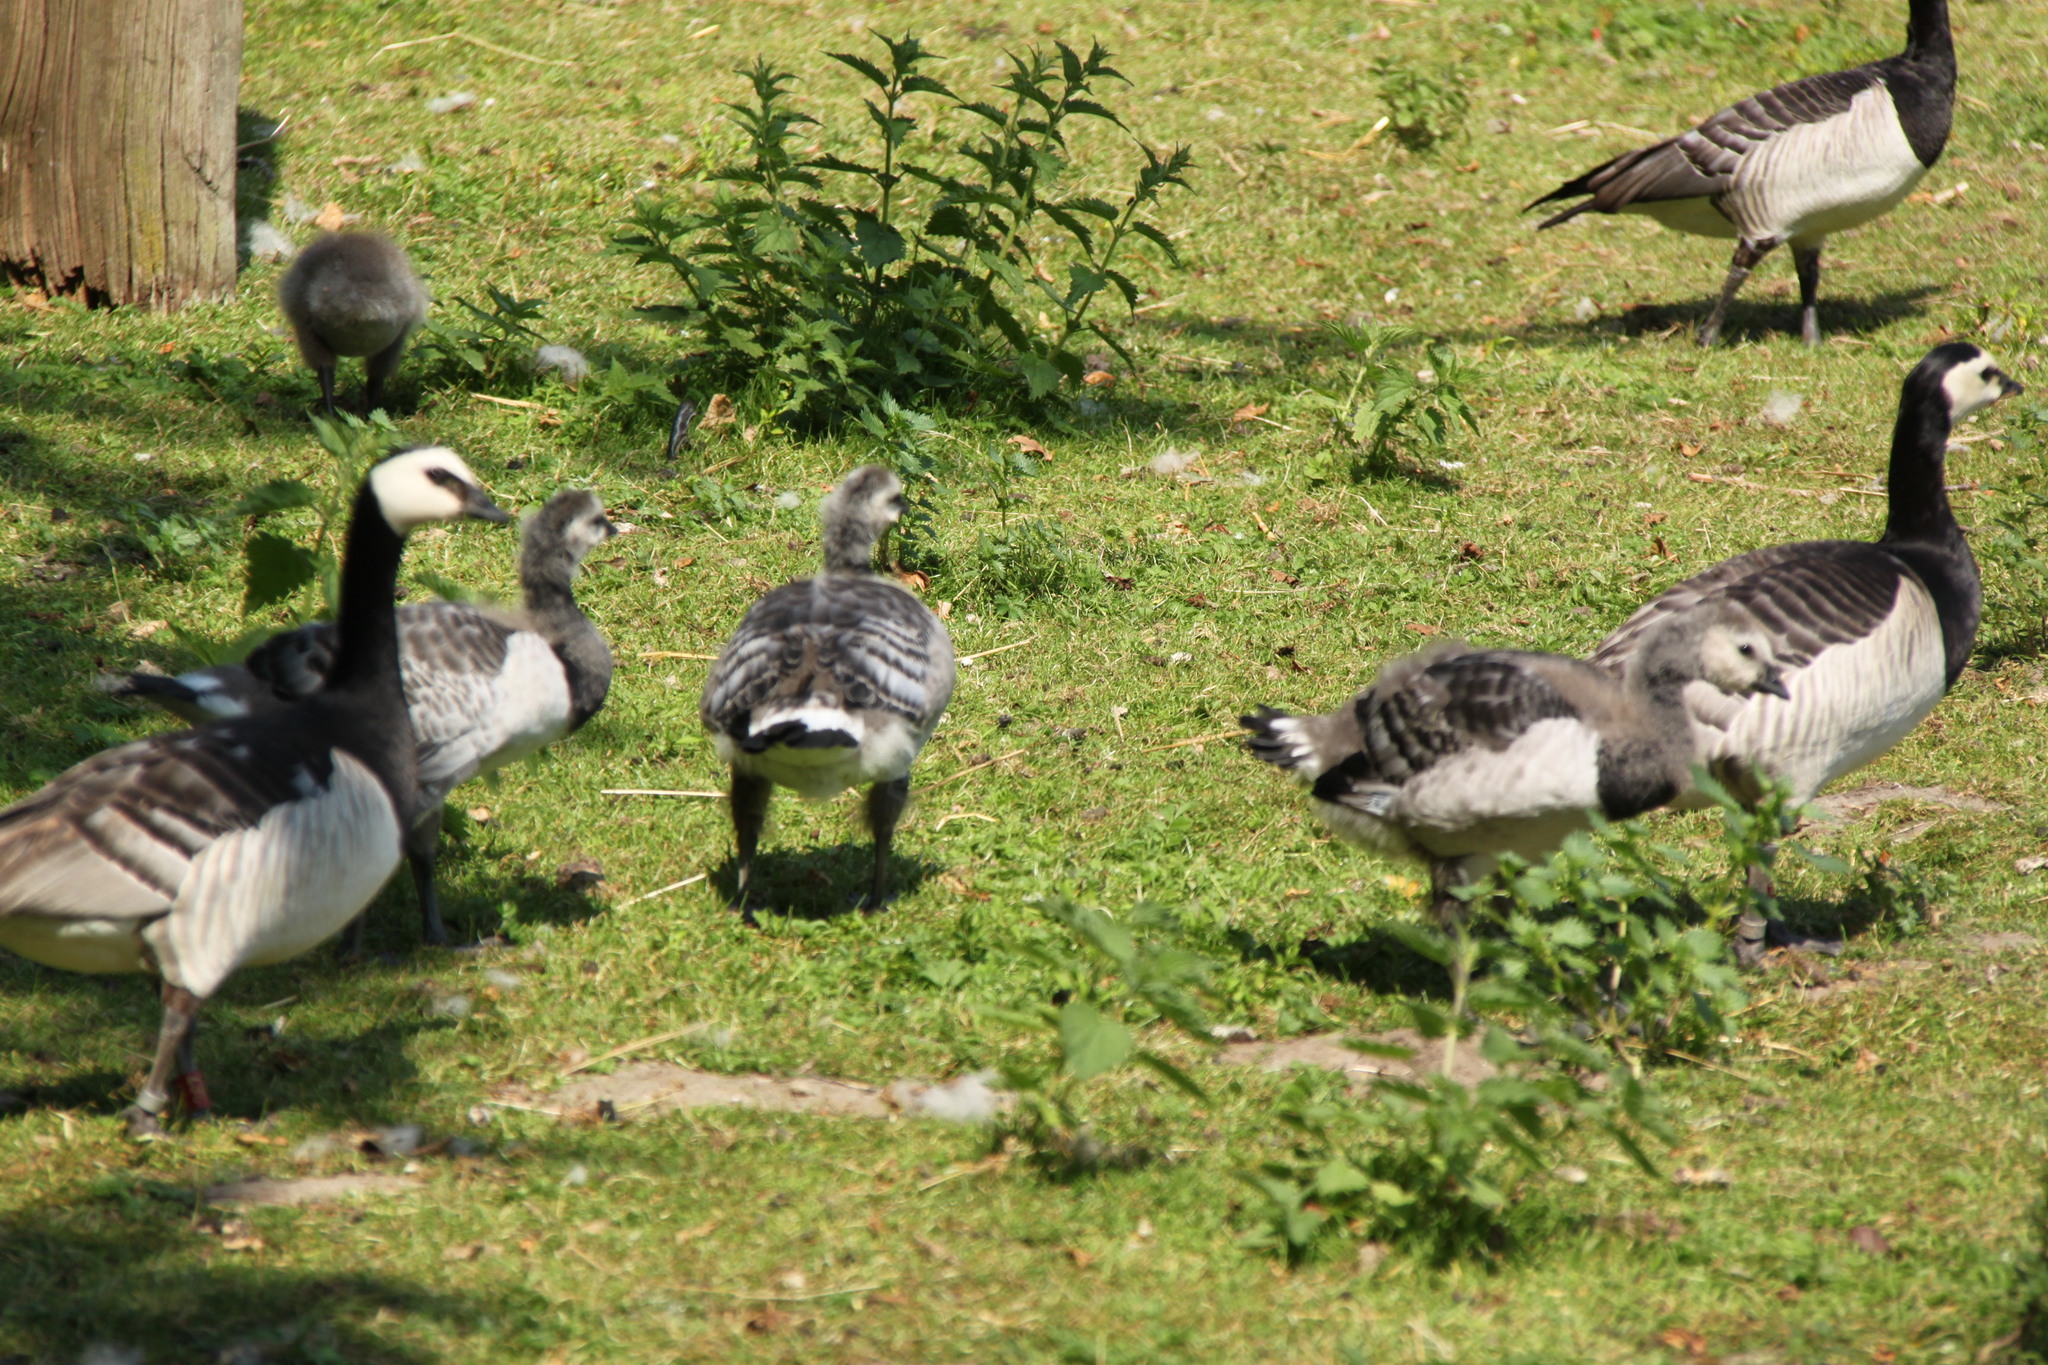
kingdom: Animalia
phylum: Chordata
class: Aves
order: Anseriformes
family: Anatidae
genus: Branta
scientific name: Branta leucopsis
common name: Barnacle goose
